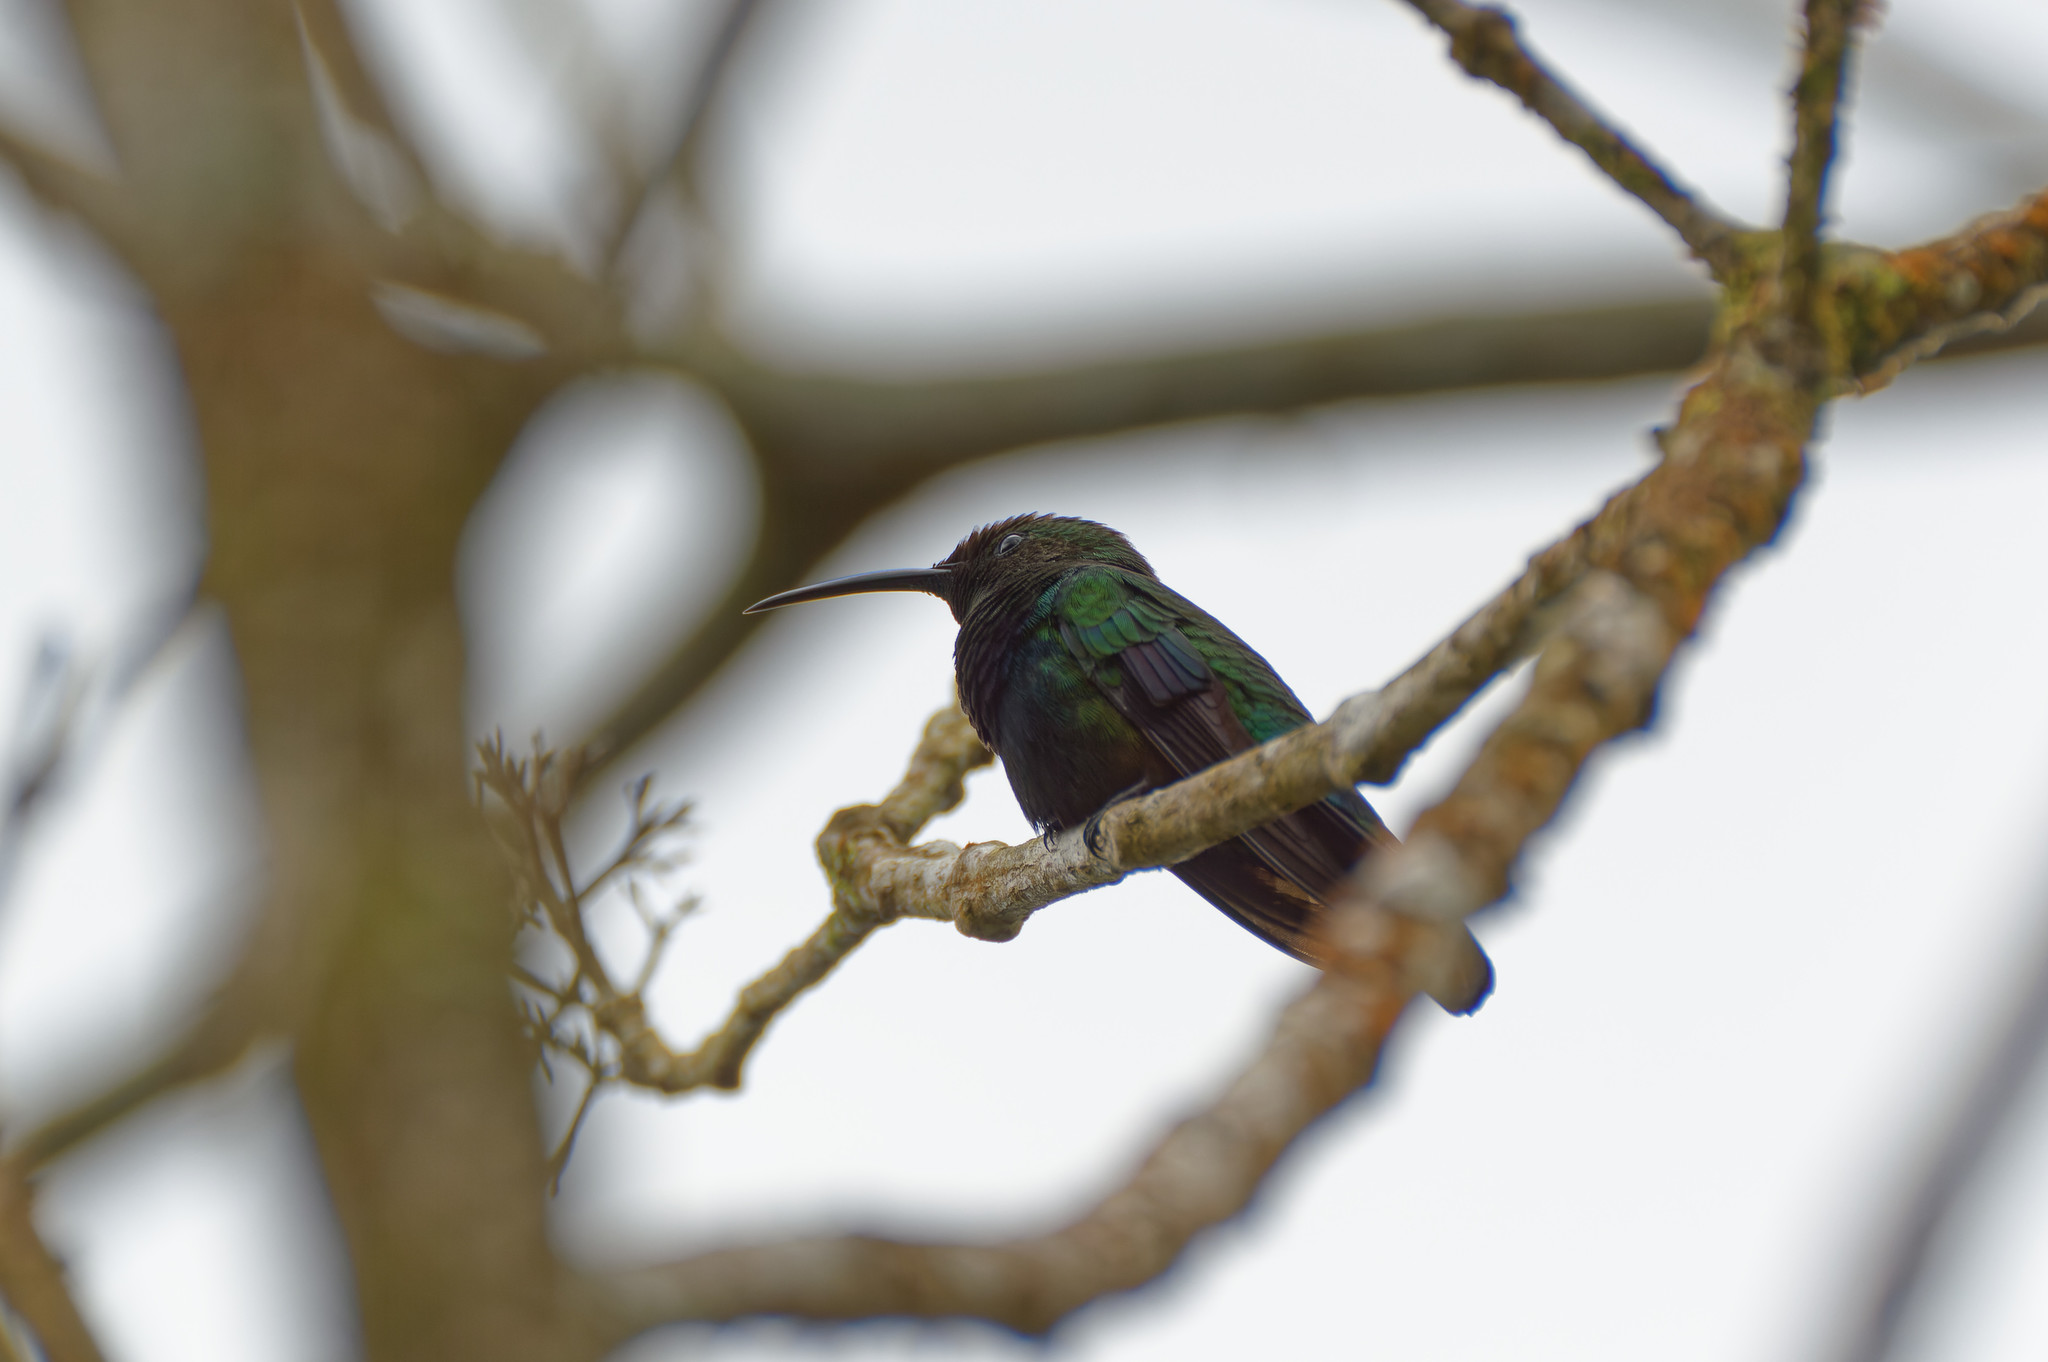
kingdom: Animalia
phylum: Chordata
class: Aves
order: Apodiformes
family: Trochilidae
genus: Eulampis
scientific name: Eulampis holosericeus
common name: Green-throated carib
